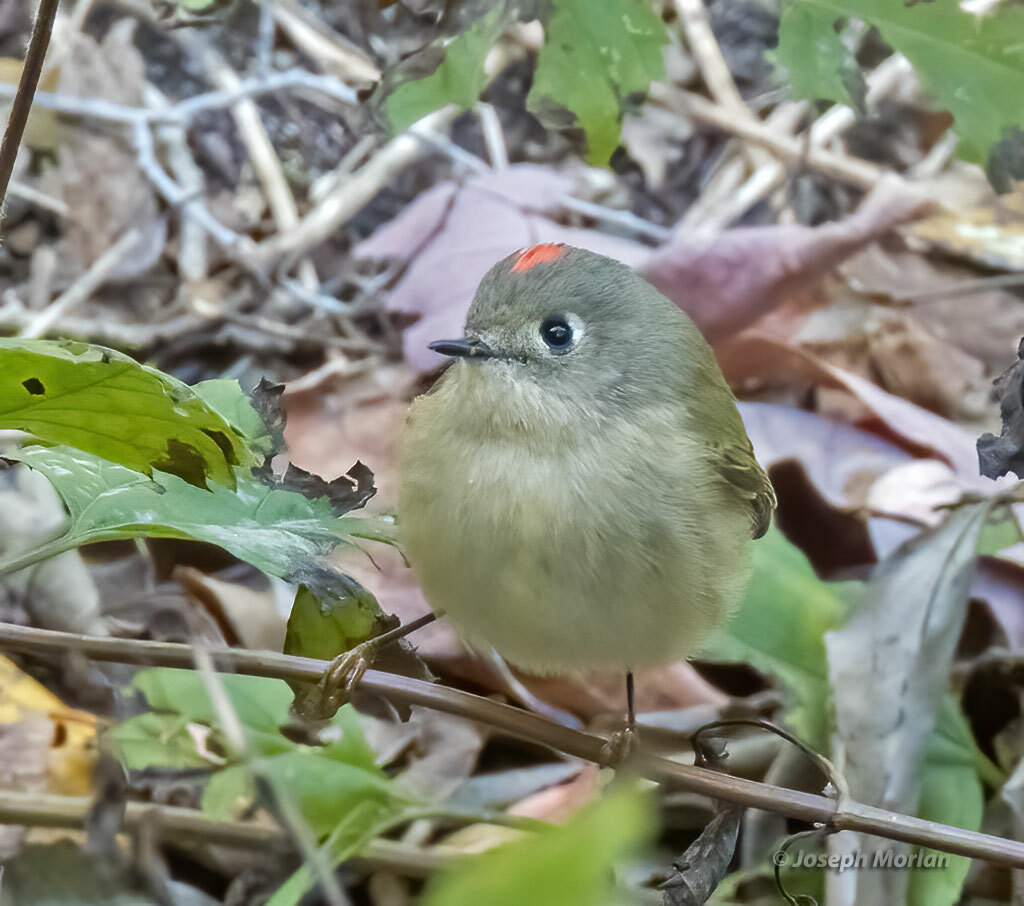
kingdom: Animalia
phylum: Chordata
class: Aves
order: Passeriformes
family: Regulidae
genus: Regulus
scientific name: Regulus calendula
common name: Ruby-crowned kinglet
